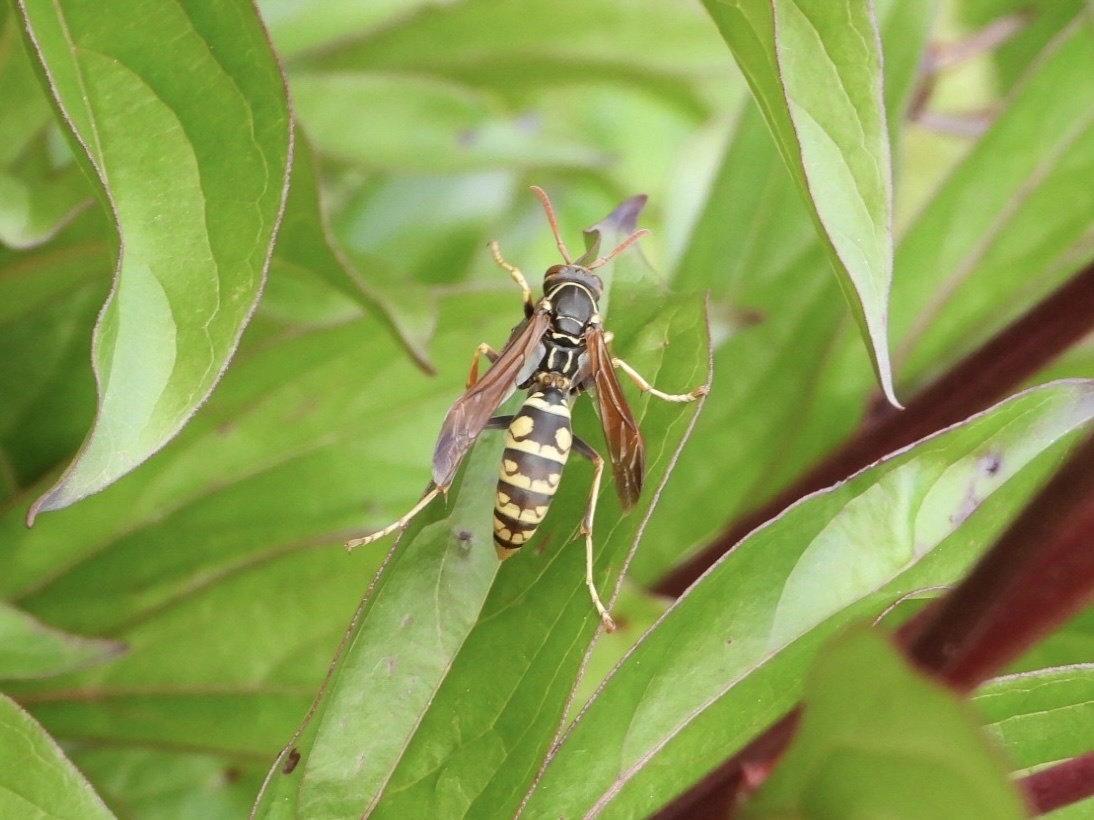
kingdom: Animalia
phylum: Arthropoda
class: Insecta
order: Hymenoptera
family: Eumenidae
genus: Polistes
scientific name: Polistes aurifer
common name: Paper wasp
